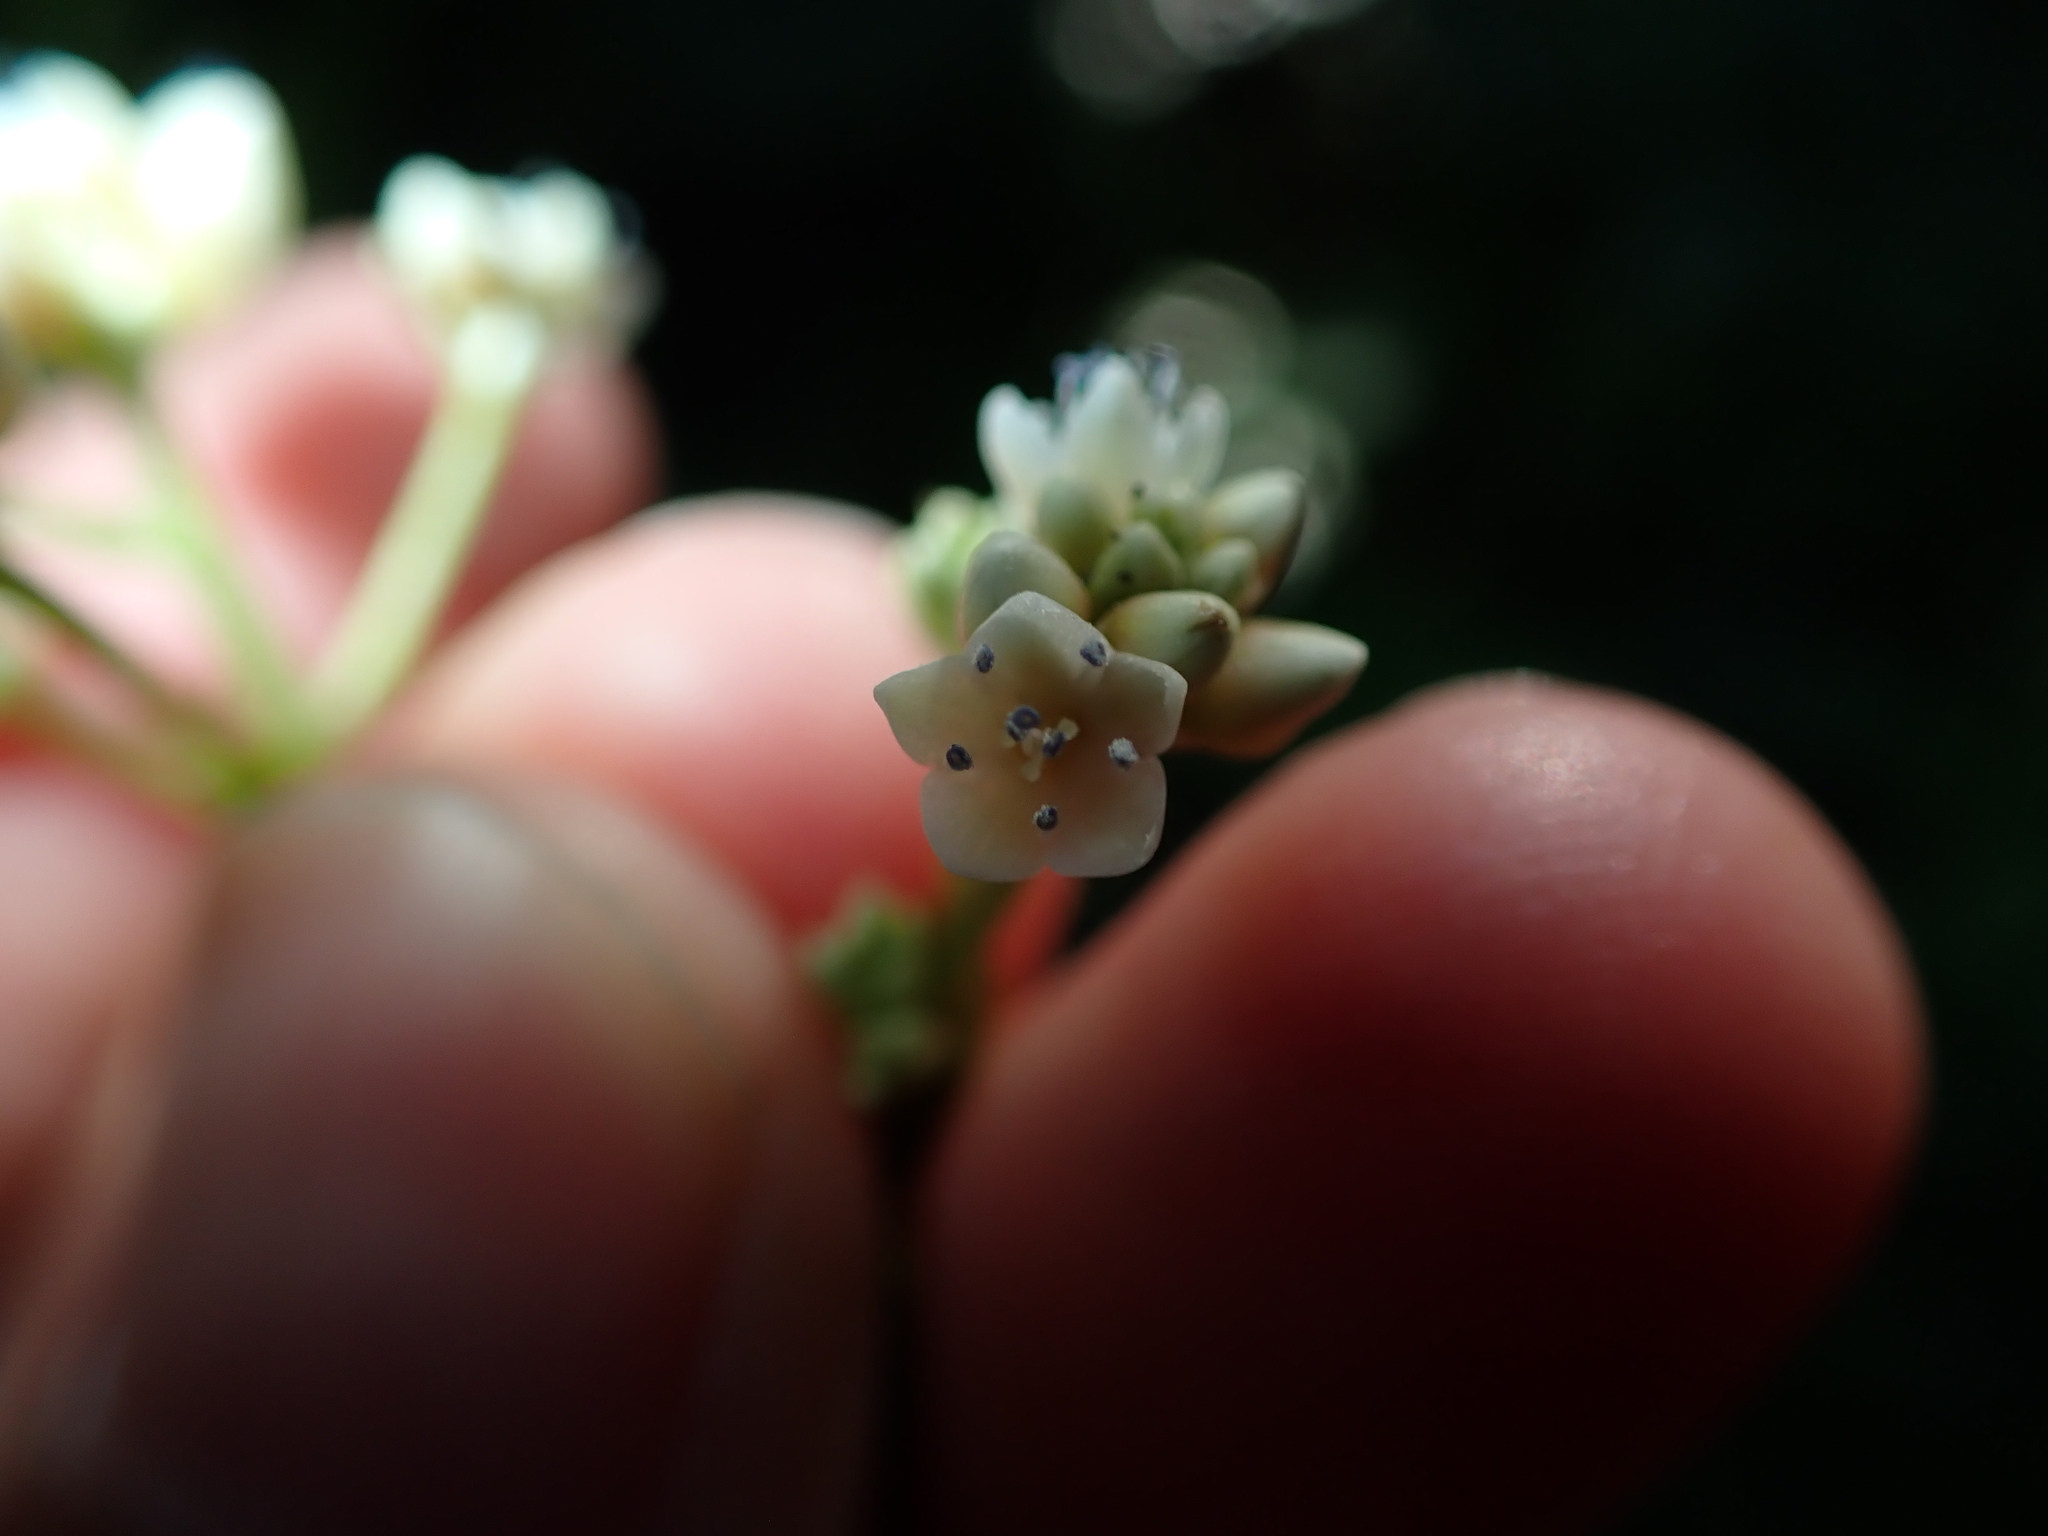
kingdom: Plantae
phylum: Tracheophyta
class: Magnoliopsida
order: Caryophyllales
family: Polygonaceae
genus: Persicaria
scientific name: Persicaria chinensis
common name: Chinese knotweed
